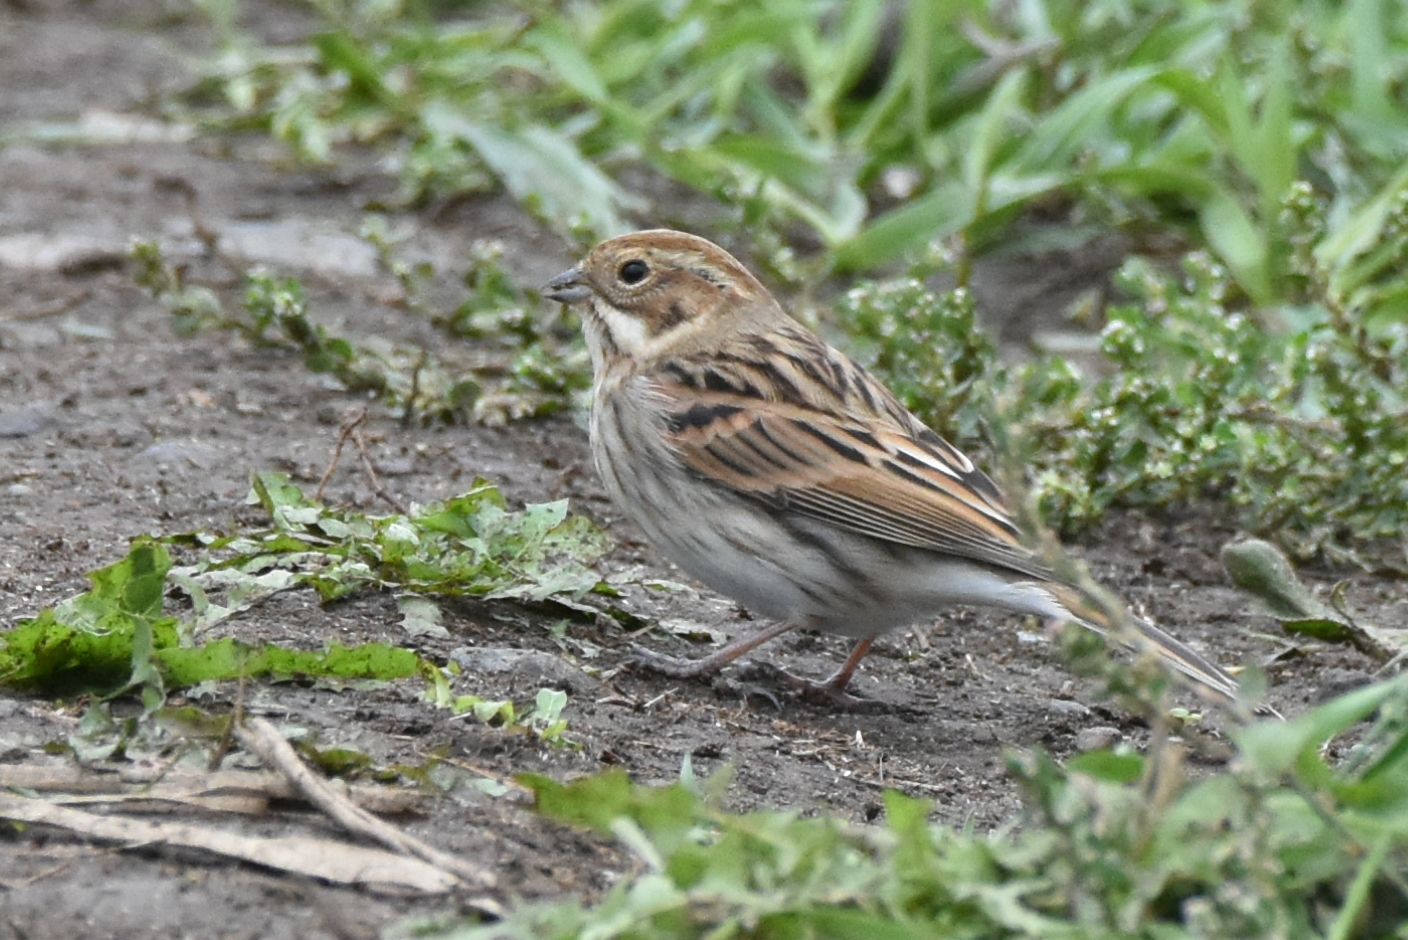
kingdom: Animalia
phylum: Chordata
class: Aves
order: Passeriformes
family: Emberizidae
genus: Emberiza
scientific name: Emberiza schoeniclus
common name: Reed bunting
